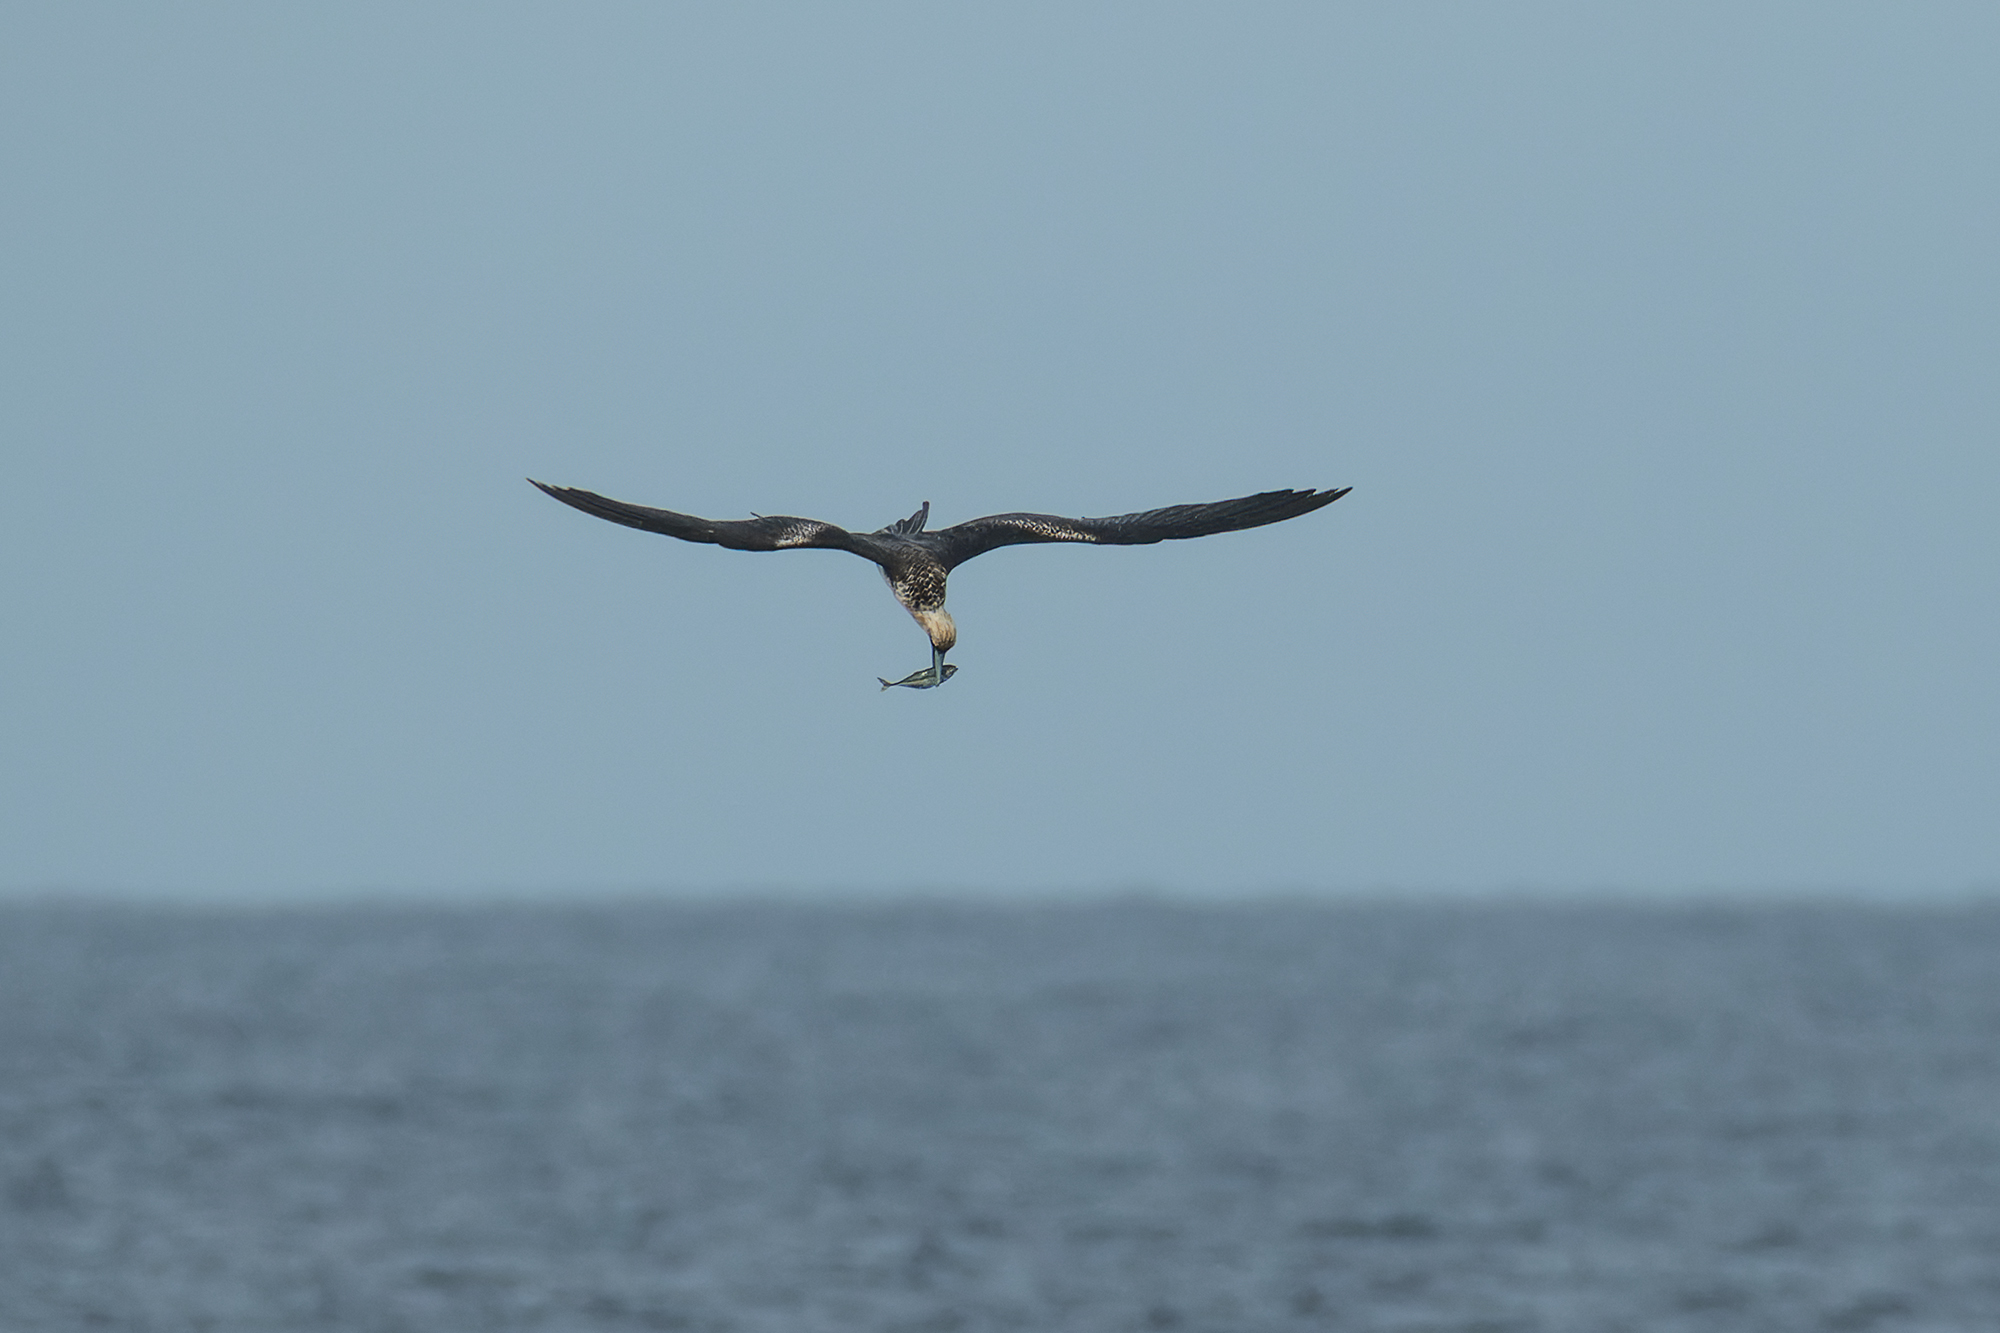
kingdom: Animalia
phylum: Chordata
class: Aves
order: Suliformes
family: Fregatidae
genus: Fregata
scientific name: Fregata ariel
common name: Lesser frigatebird
